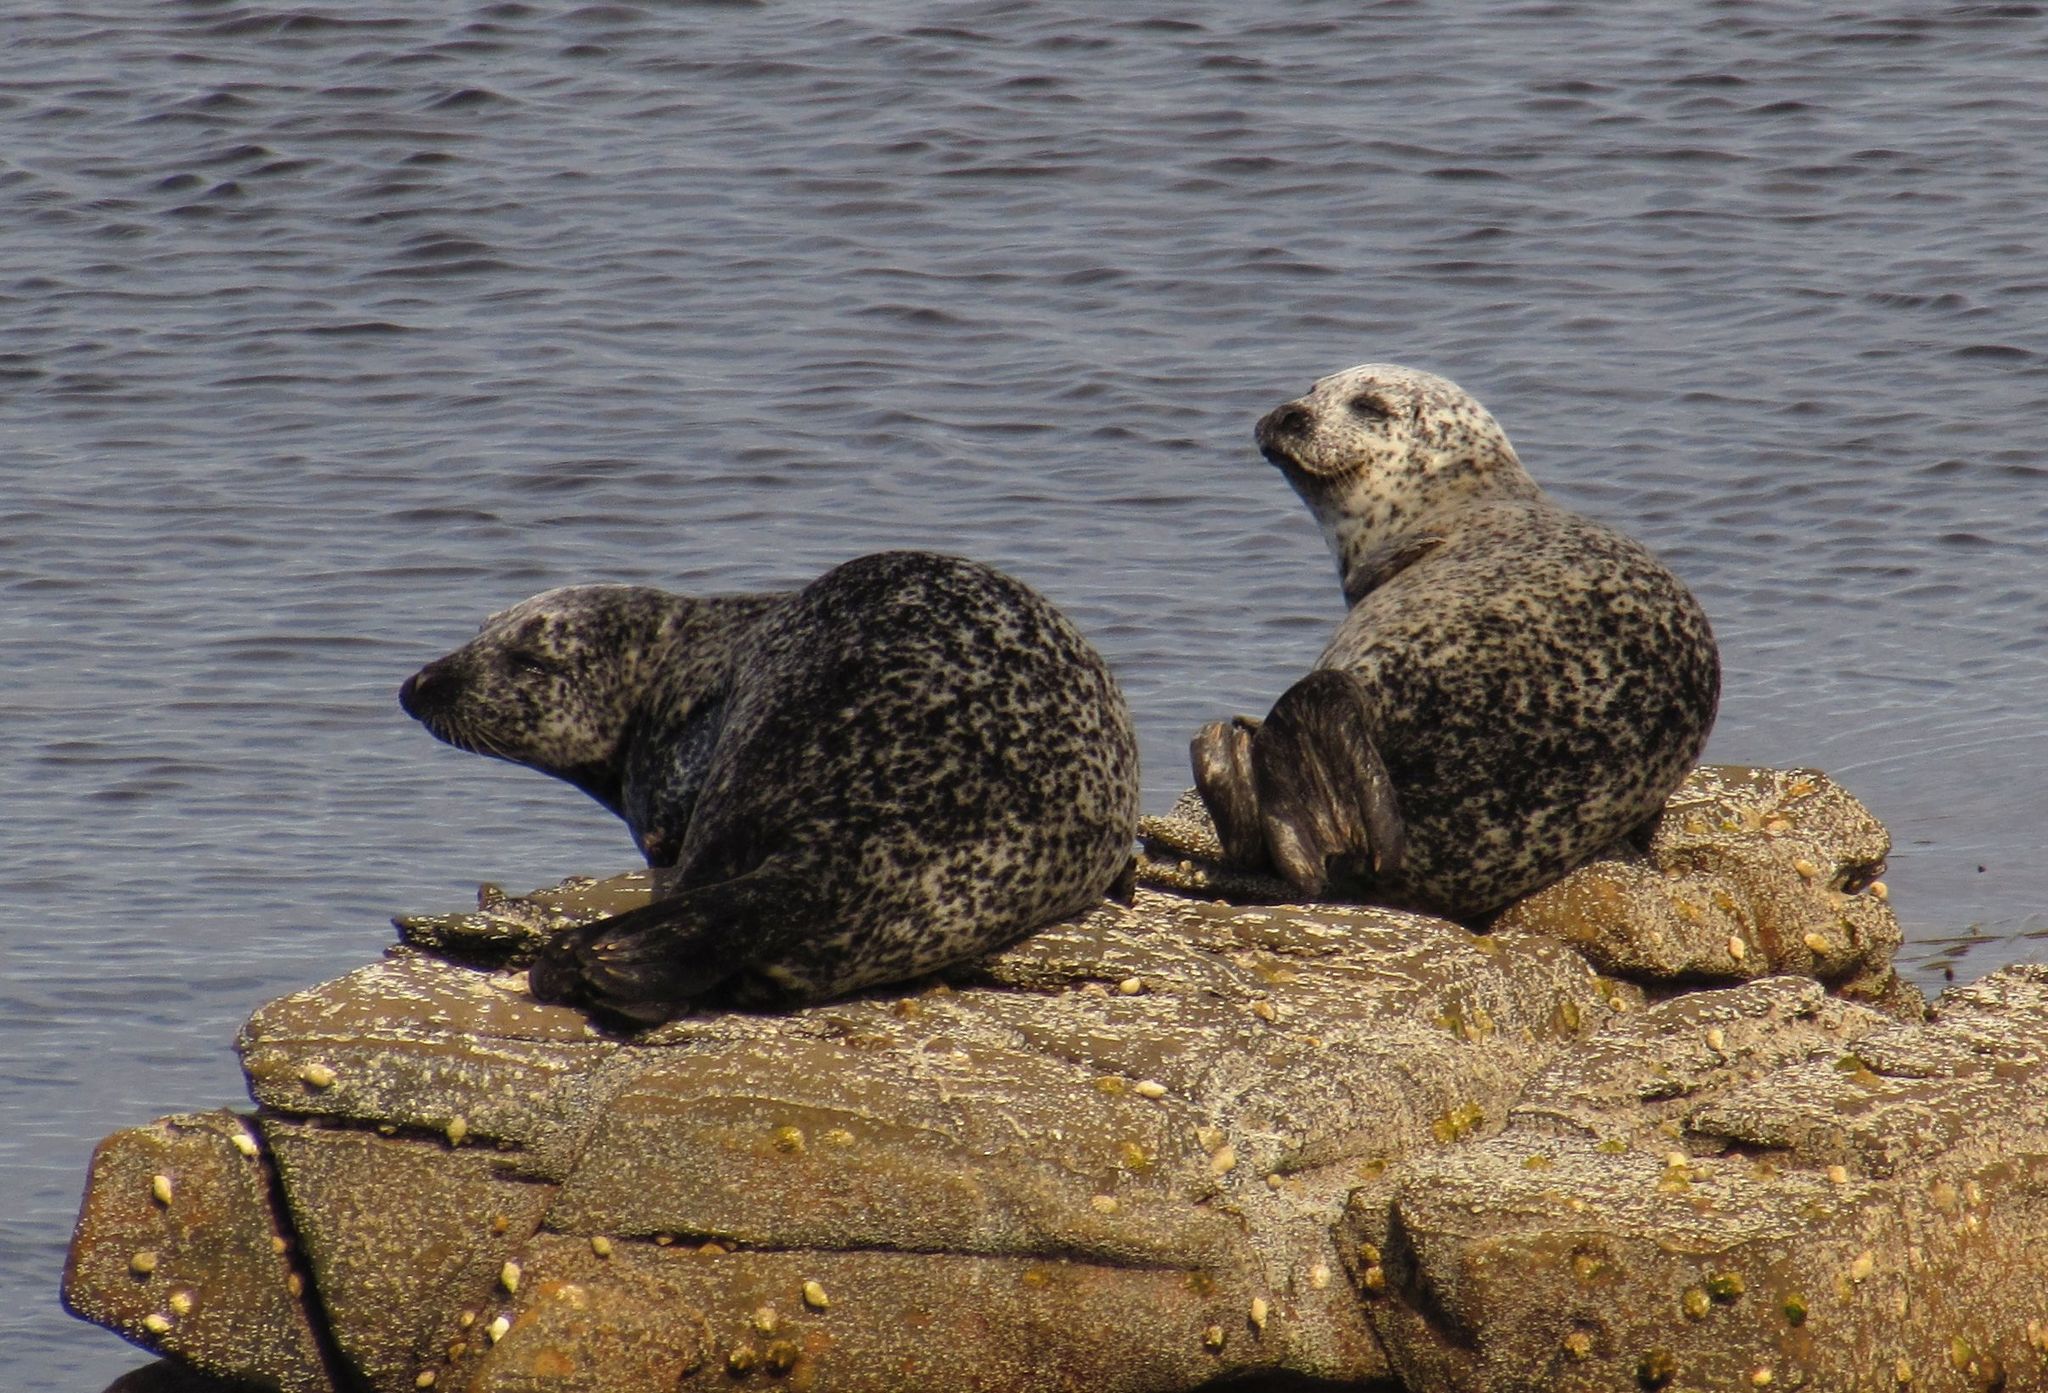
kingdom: Animalia
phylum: Chordata
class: Mammalia
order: Carnivora
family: Phocidae
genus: Phoca
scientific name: Phoca vitulina
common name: Harbor seal
